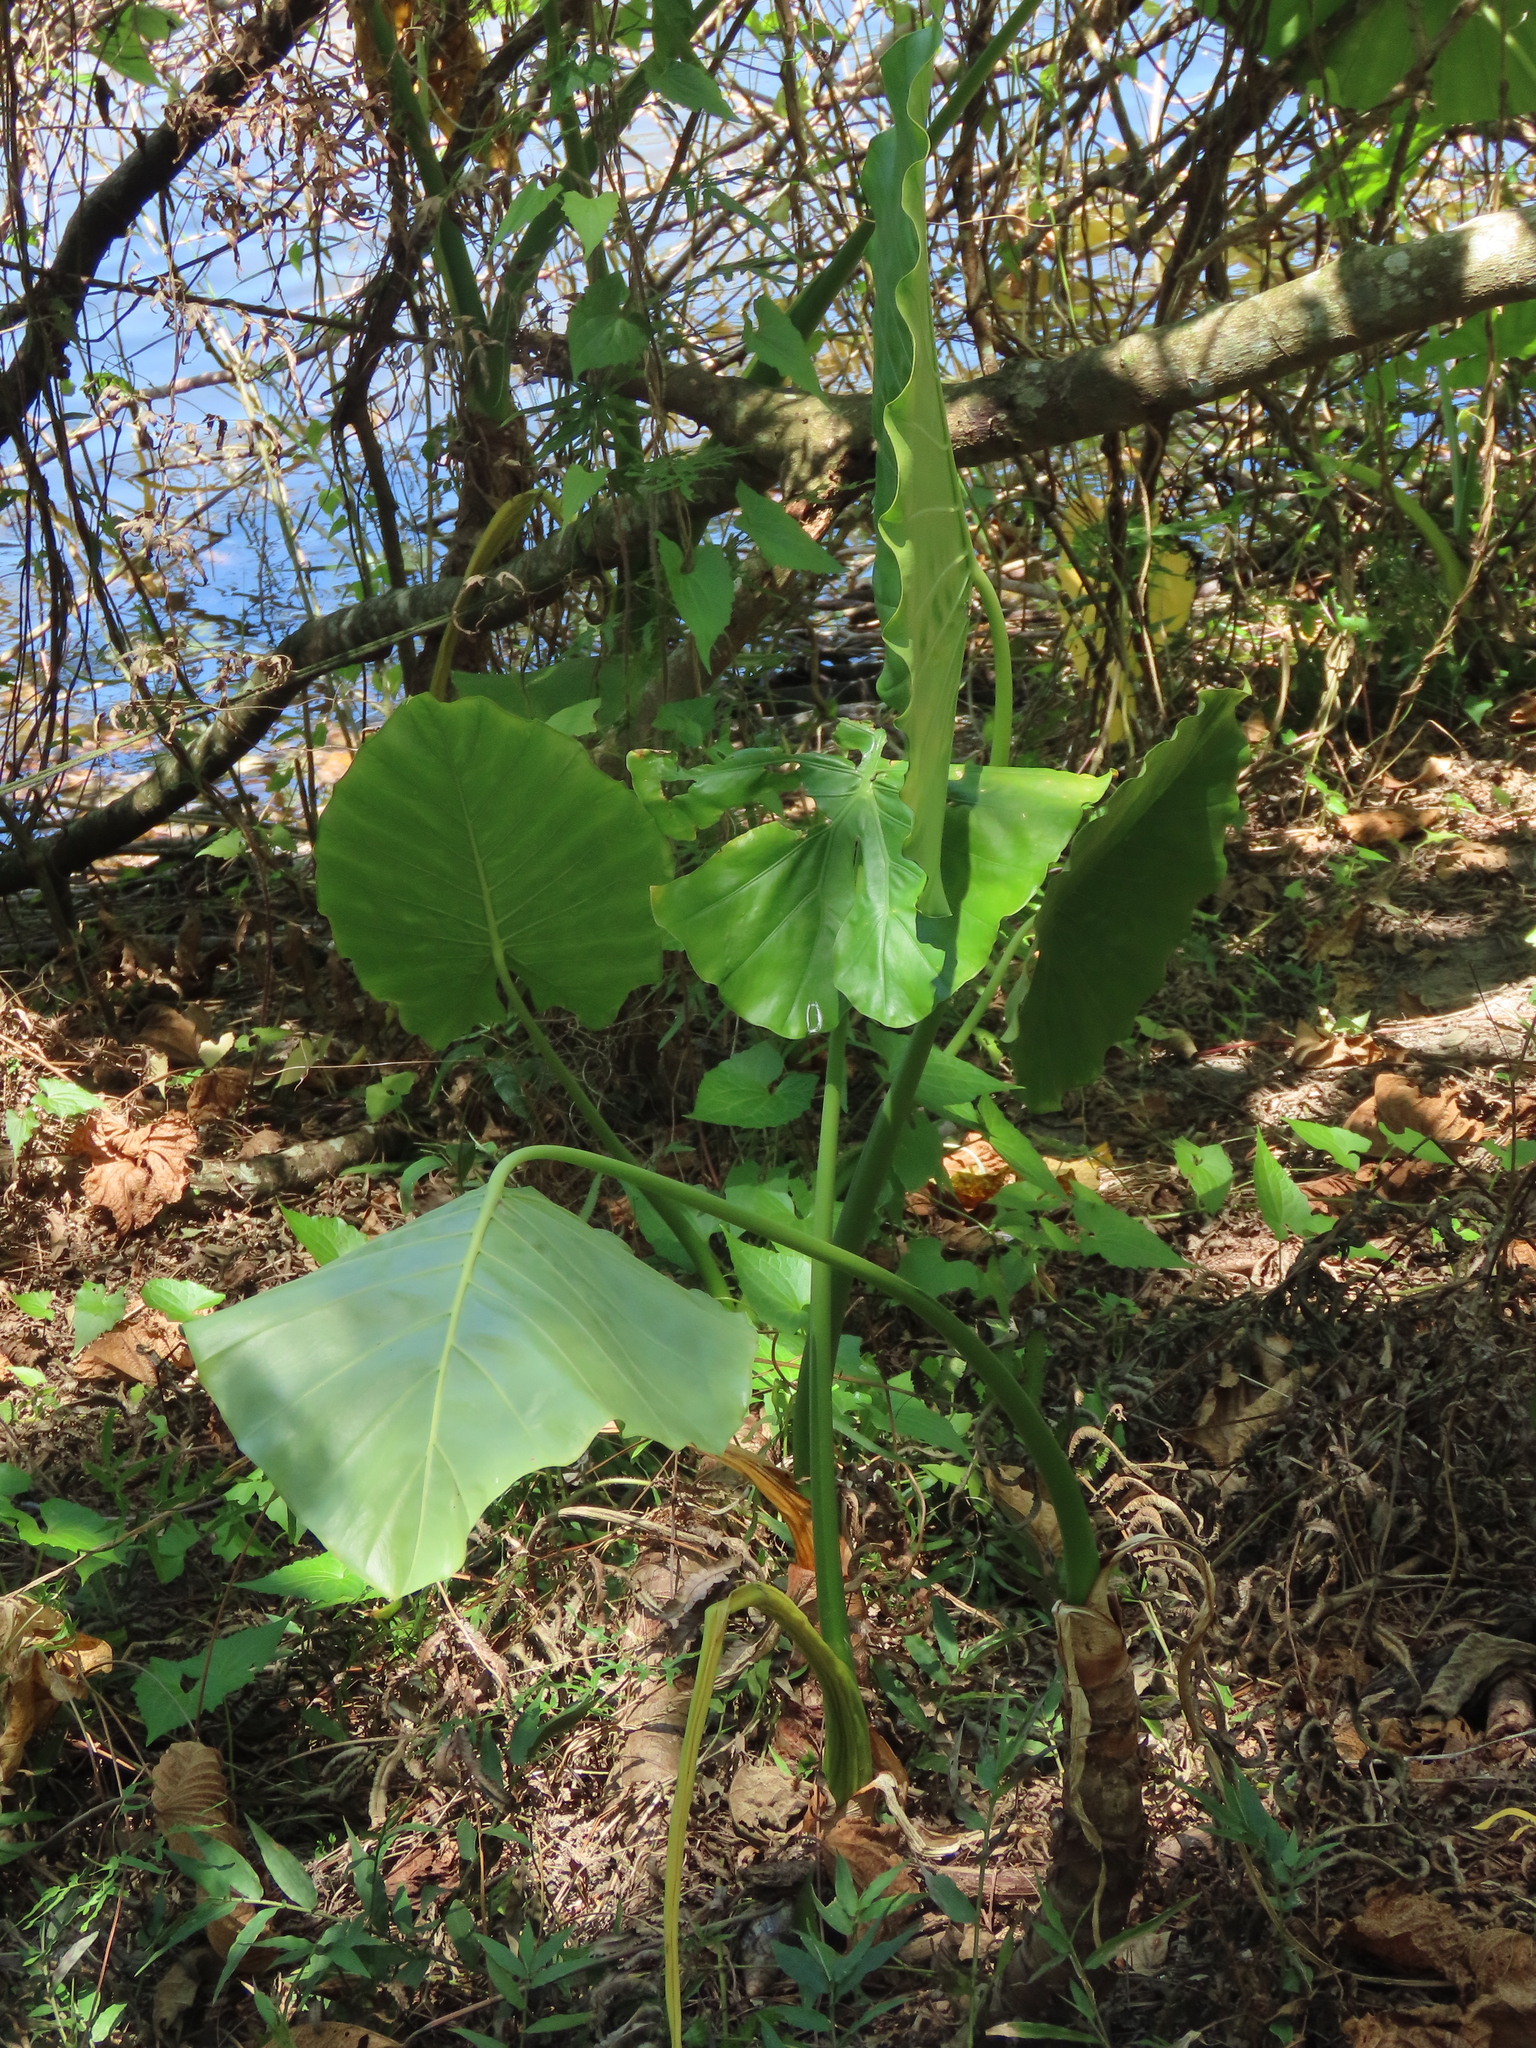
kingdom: Plantae
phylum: Tracheophyta
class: Liliopsida
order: Alismatales
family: Araceae
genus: Alocasia
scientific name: Alocasia odora
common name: Asian taro
